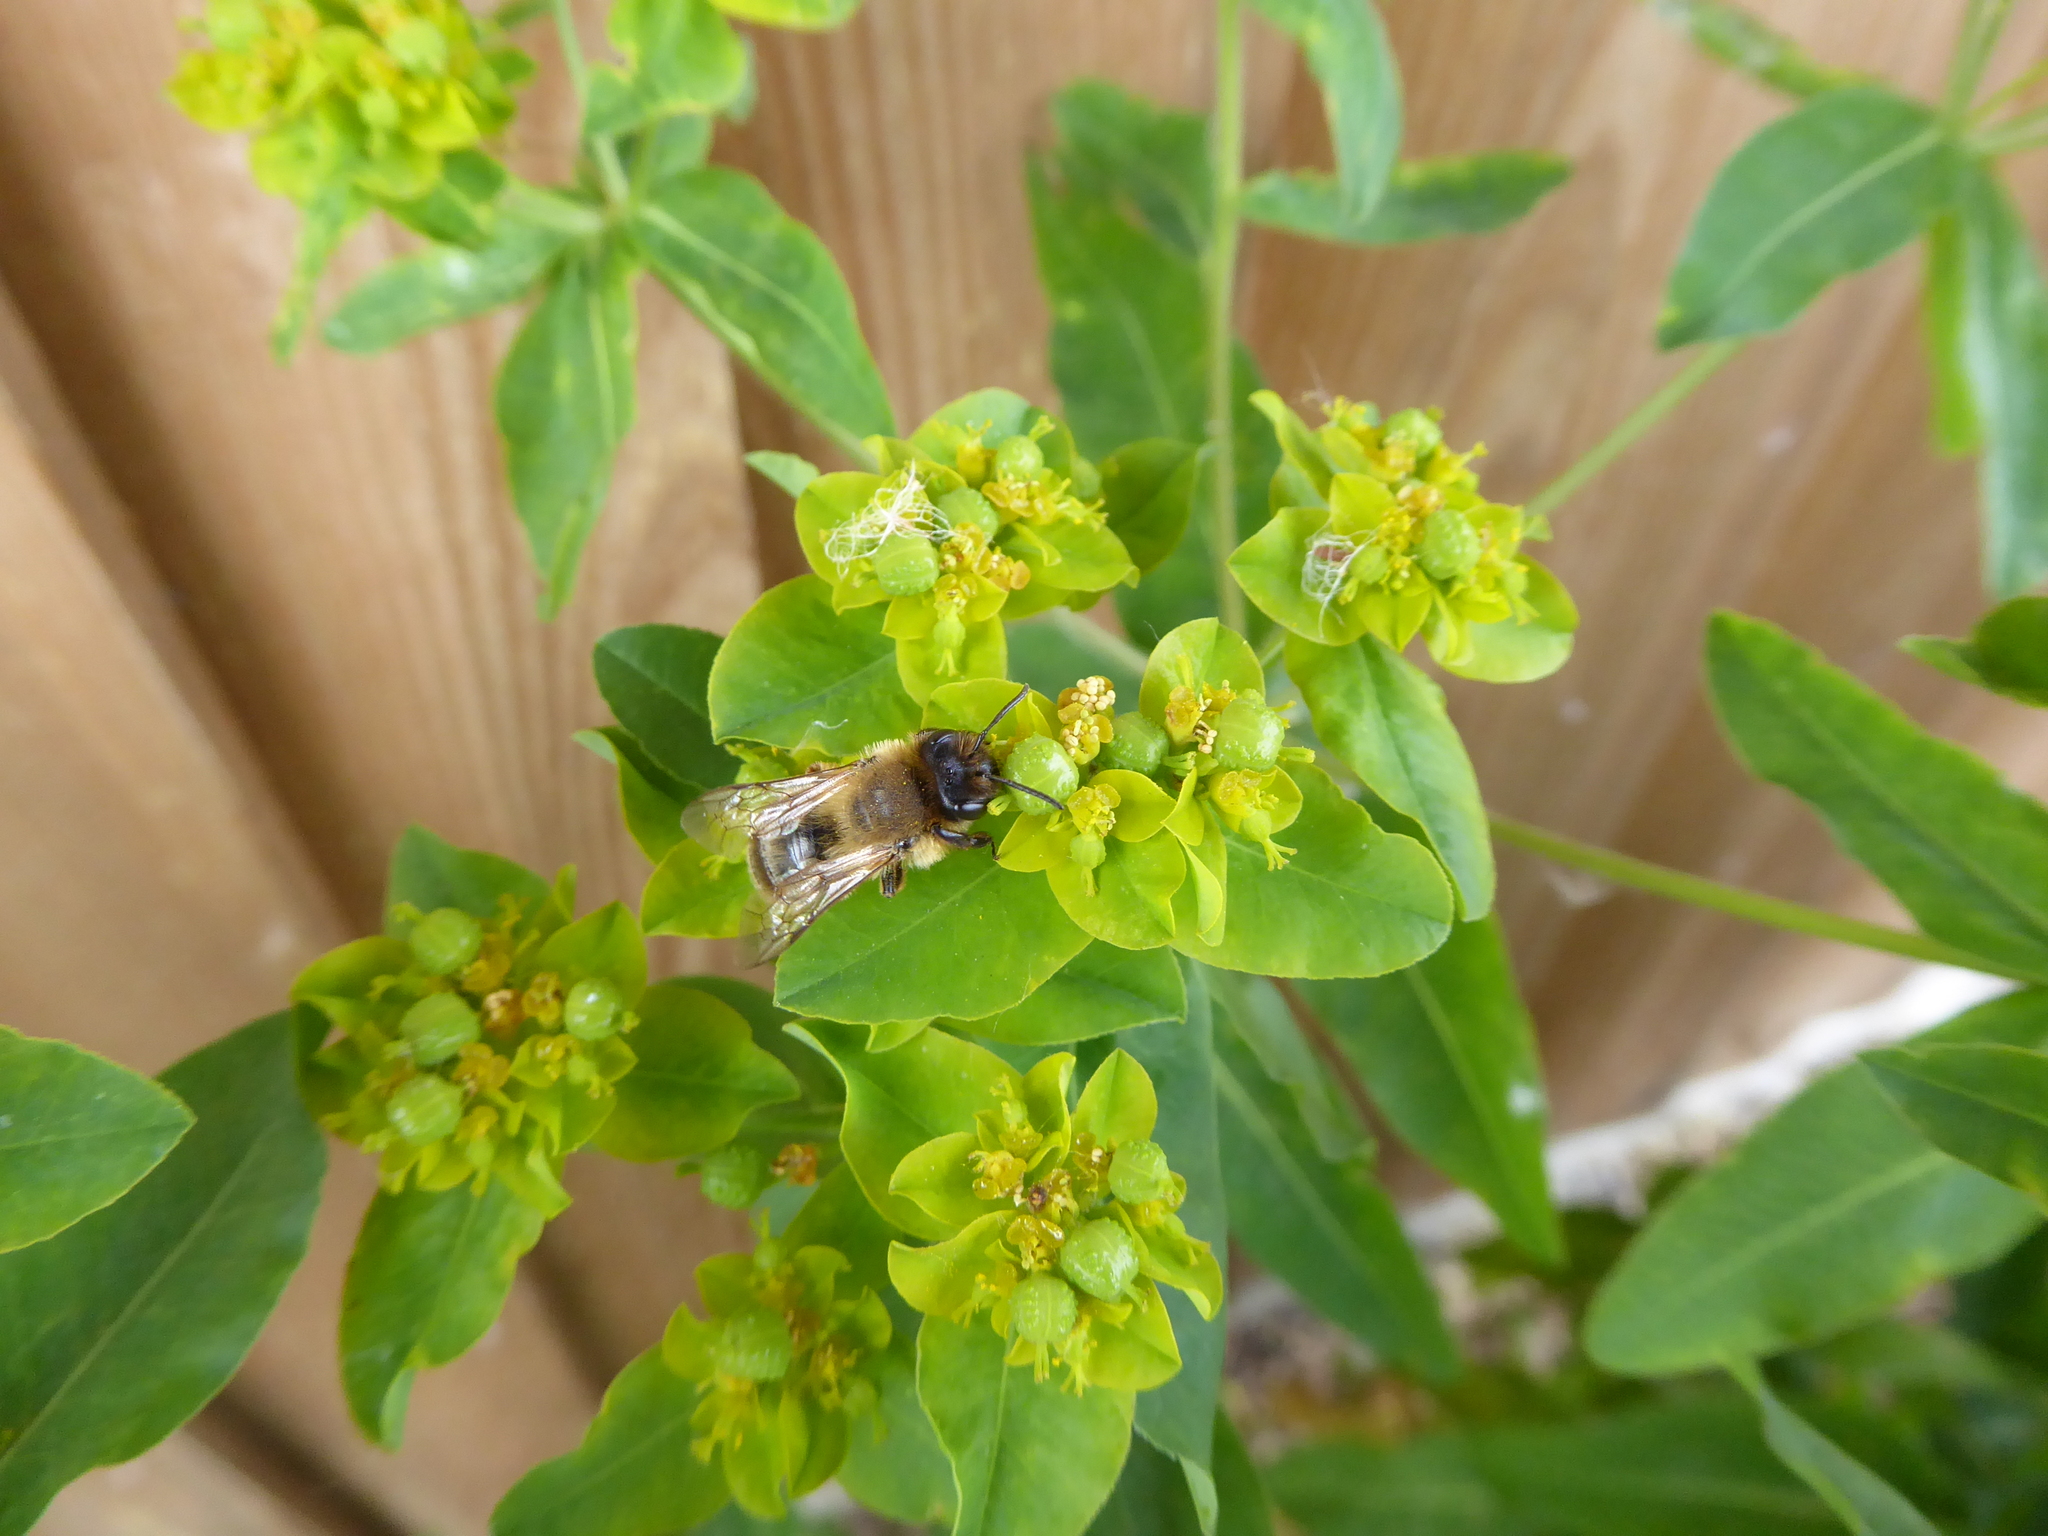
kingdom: Plantae
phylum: Tracheophyta
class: Magnoliopsida
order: Malpighiales
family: Euphorbiaceae
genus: Euphorbia
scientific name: Euphorbia oblongata
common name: Balkan spurge
